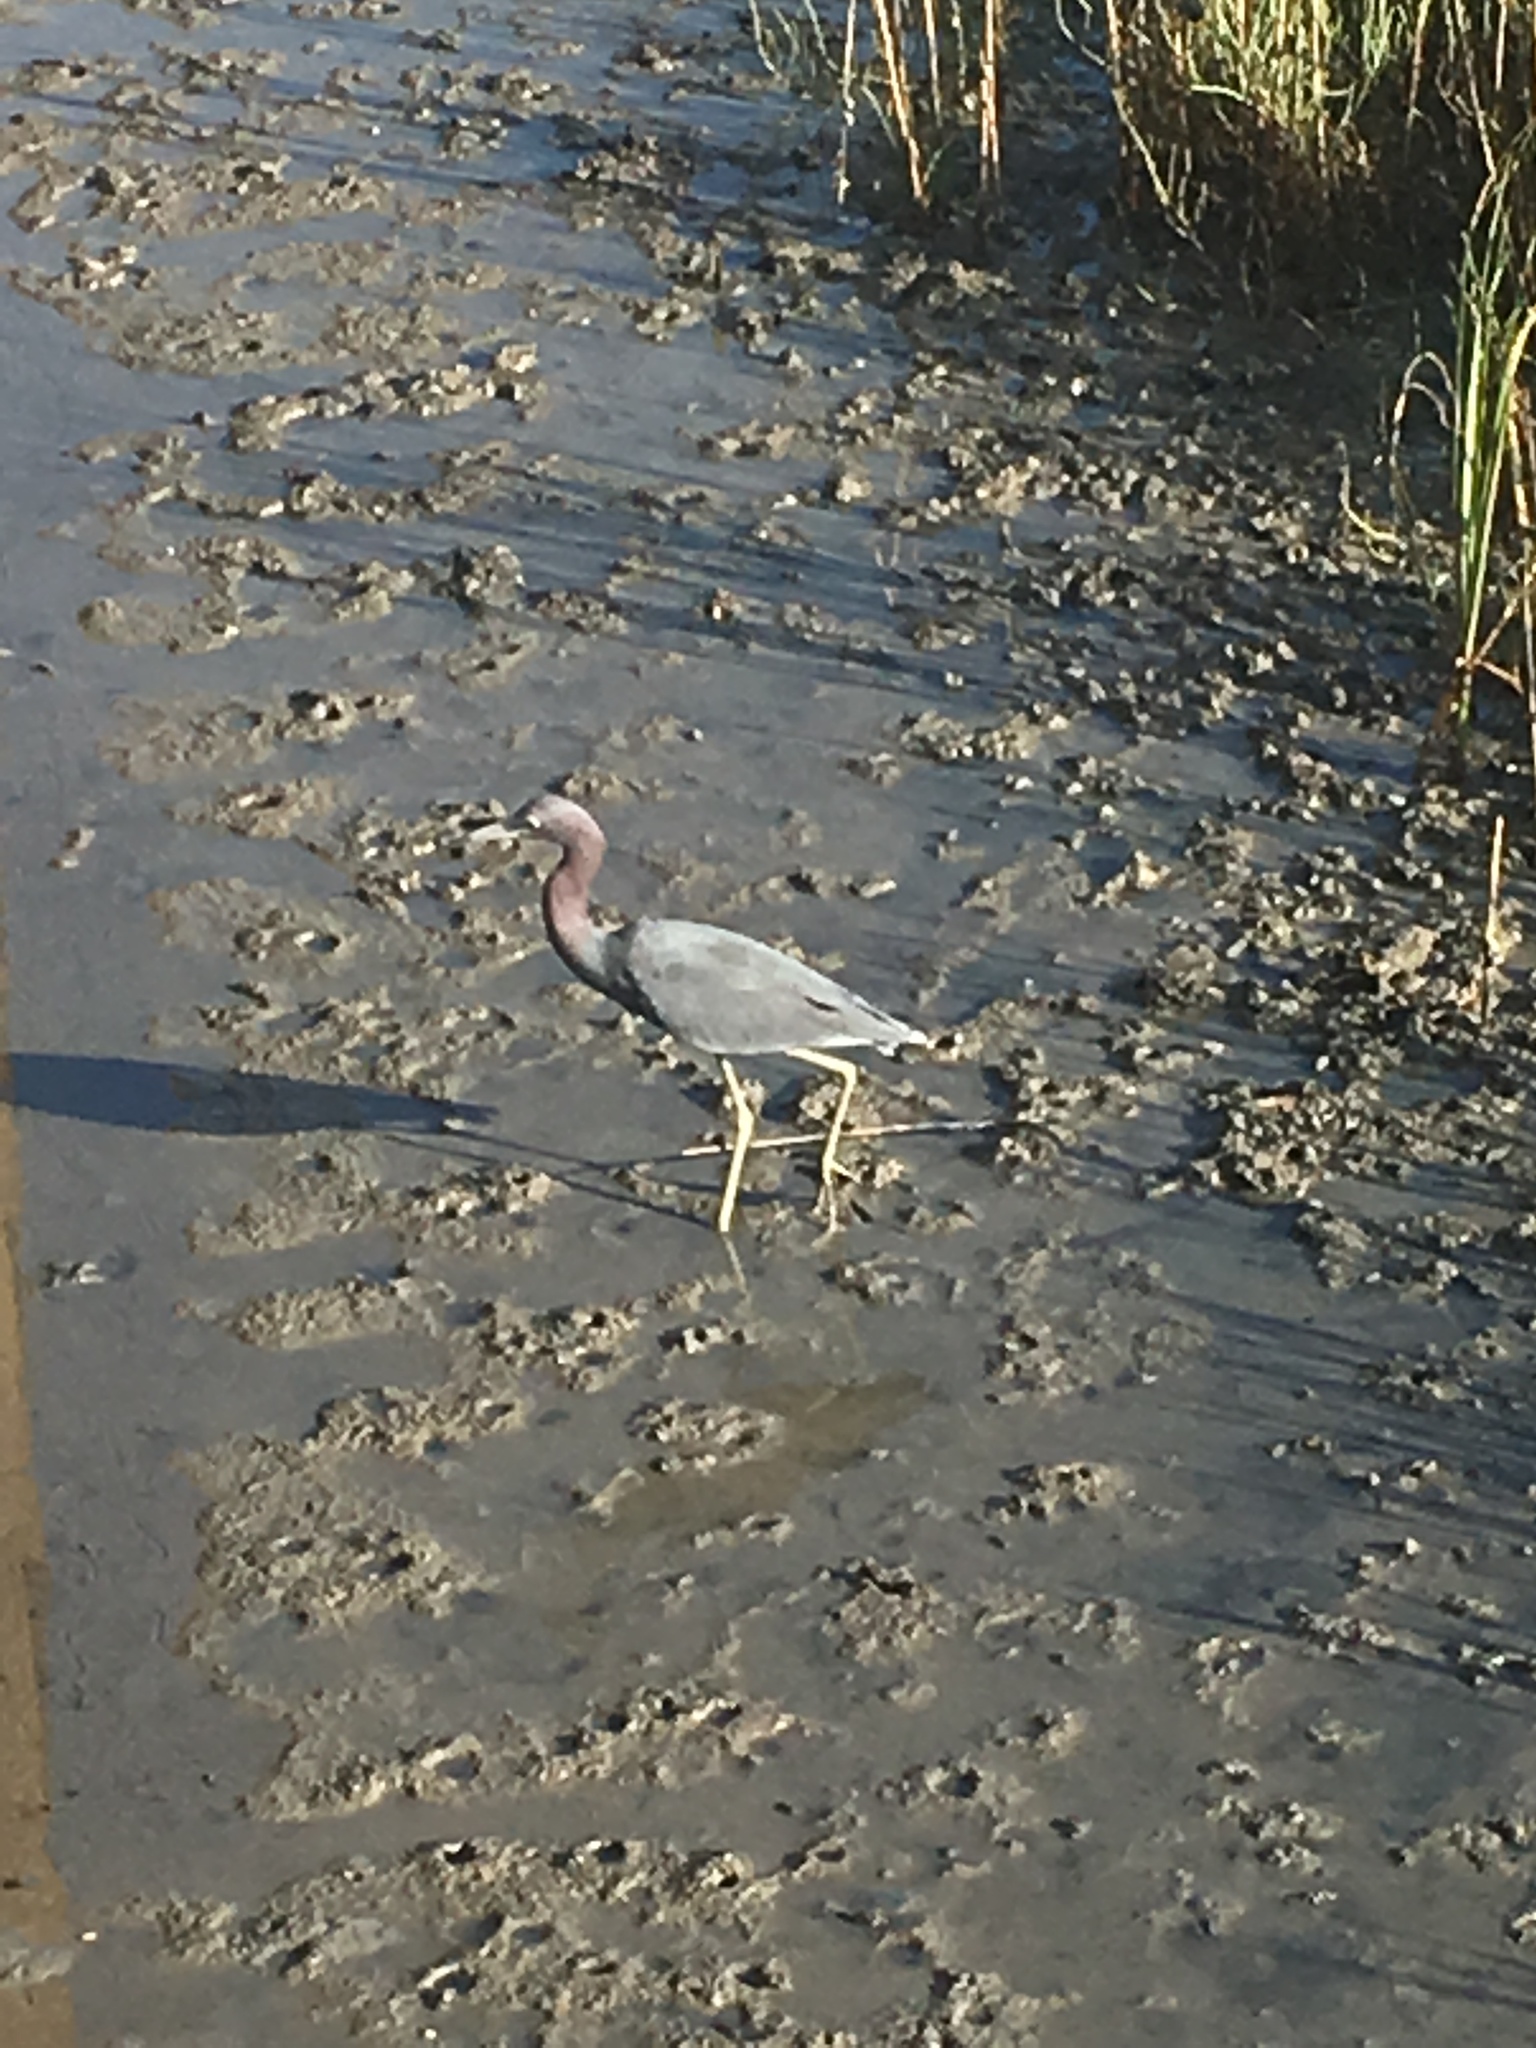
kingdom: Animalia
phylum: Chordata
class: Aves
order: Pelecaniformes
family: Ardeidae
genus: Egretta
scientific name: Egretta caerulea
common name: Little blue heron
